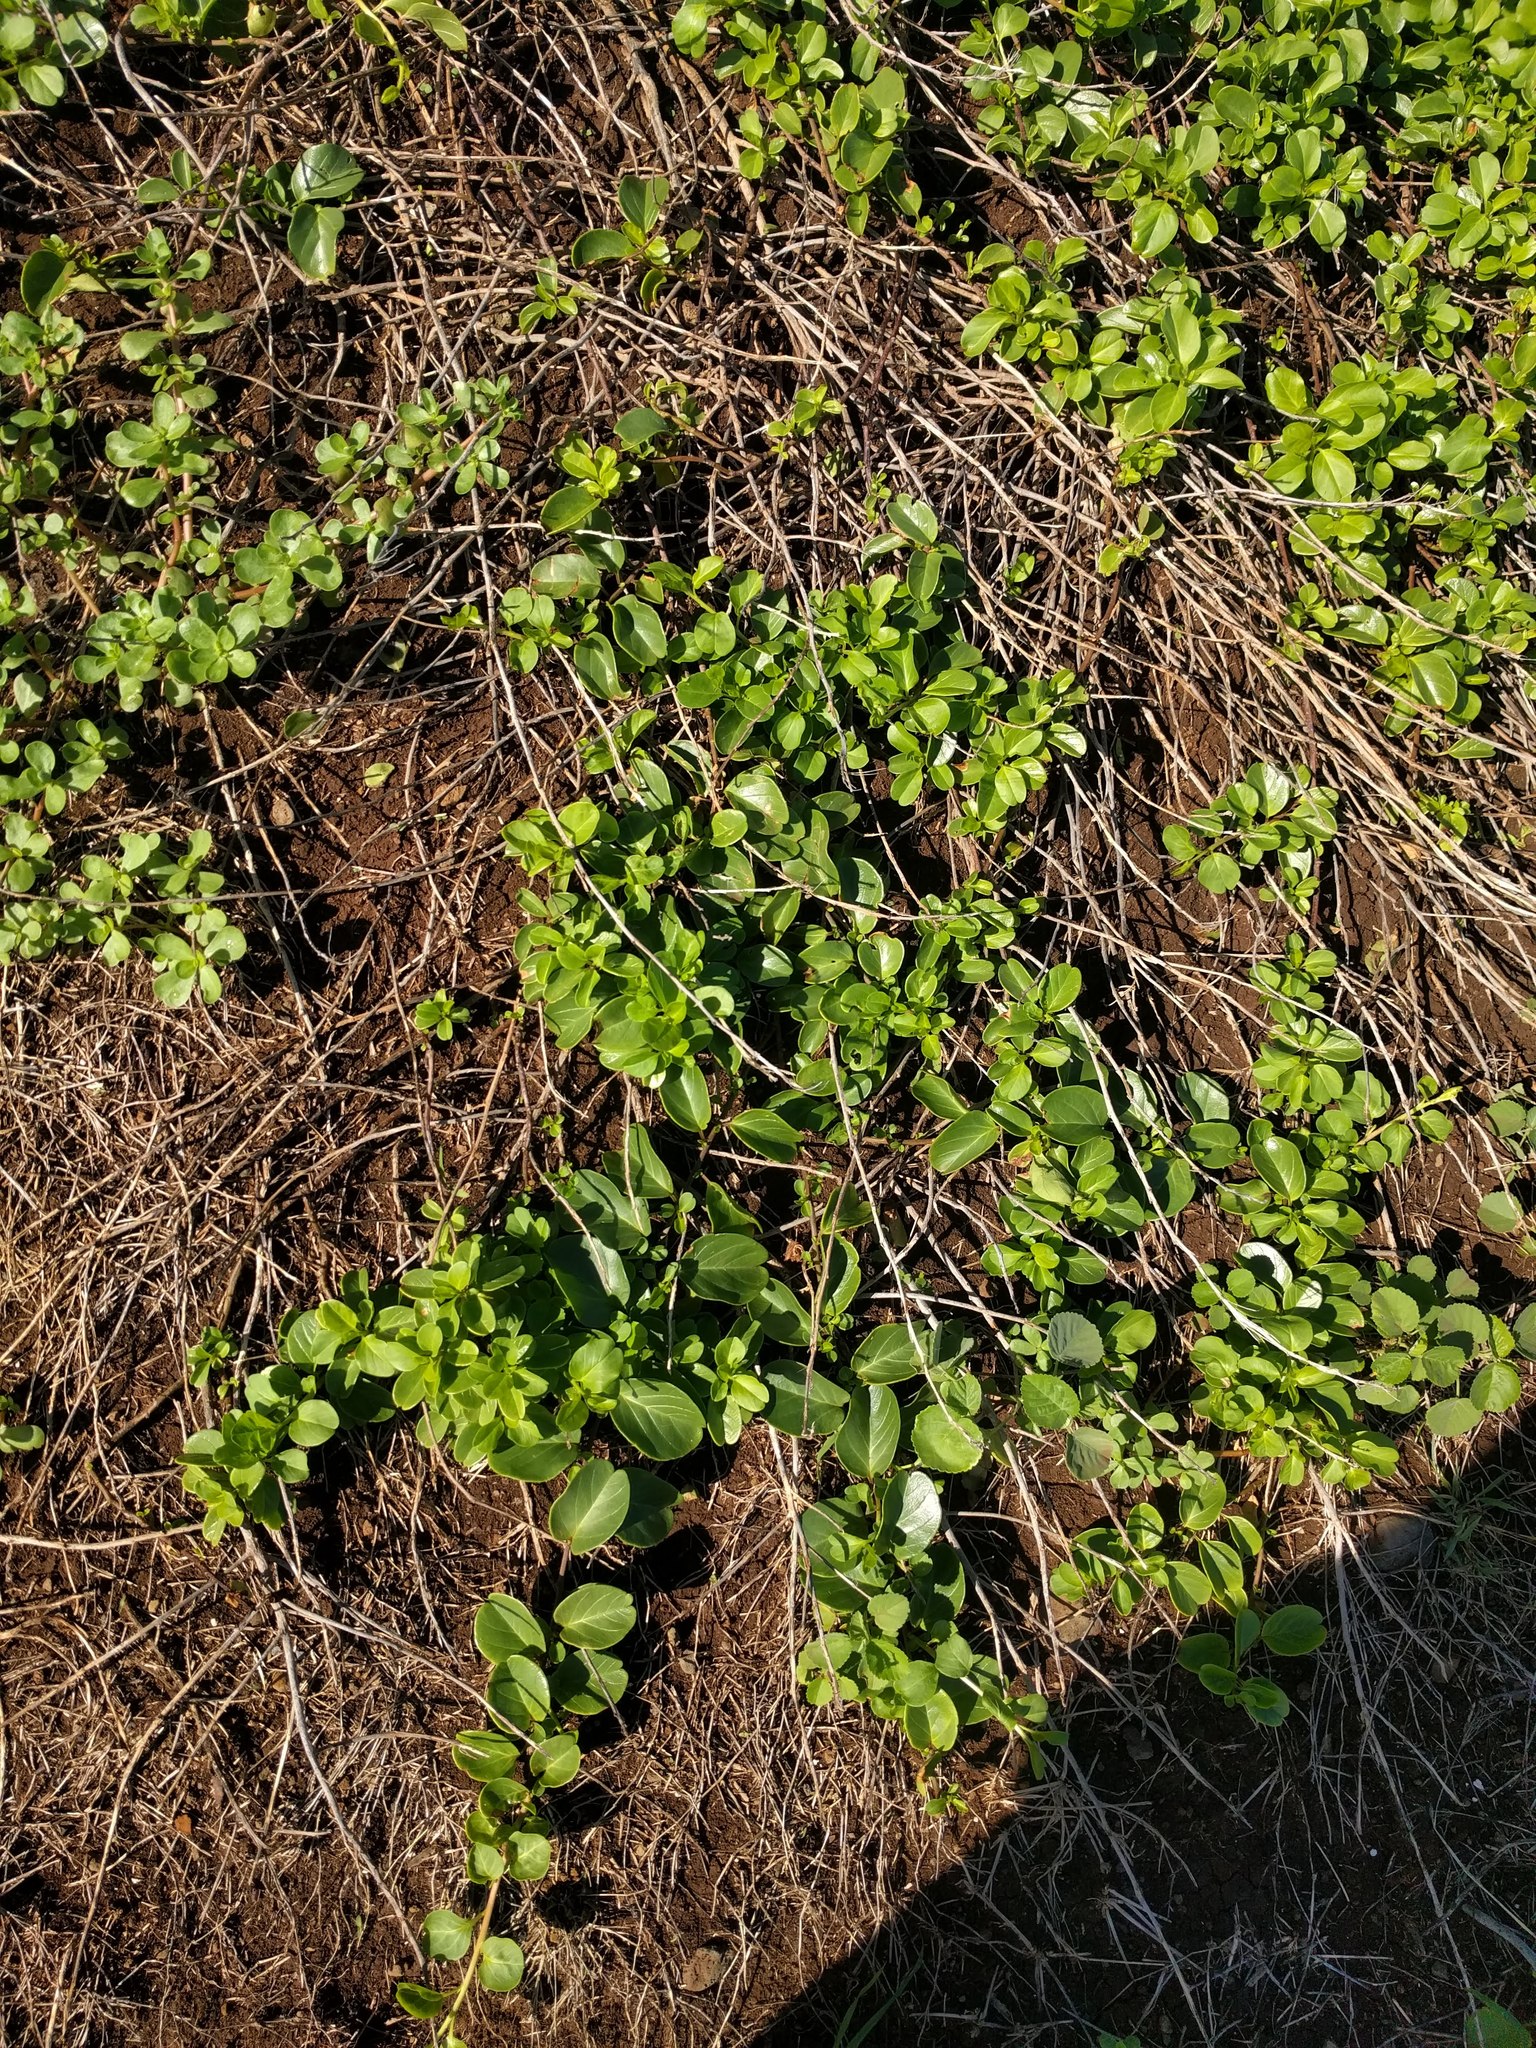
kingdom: Plantae
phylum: Tracheophyta
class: Magnoliopsida
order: Solanales
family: Convolvulaceae
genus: Jacquemontia
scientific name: Jacquemontia sandwicensis
